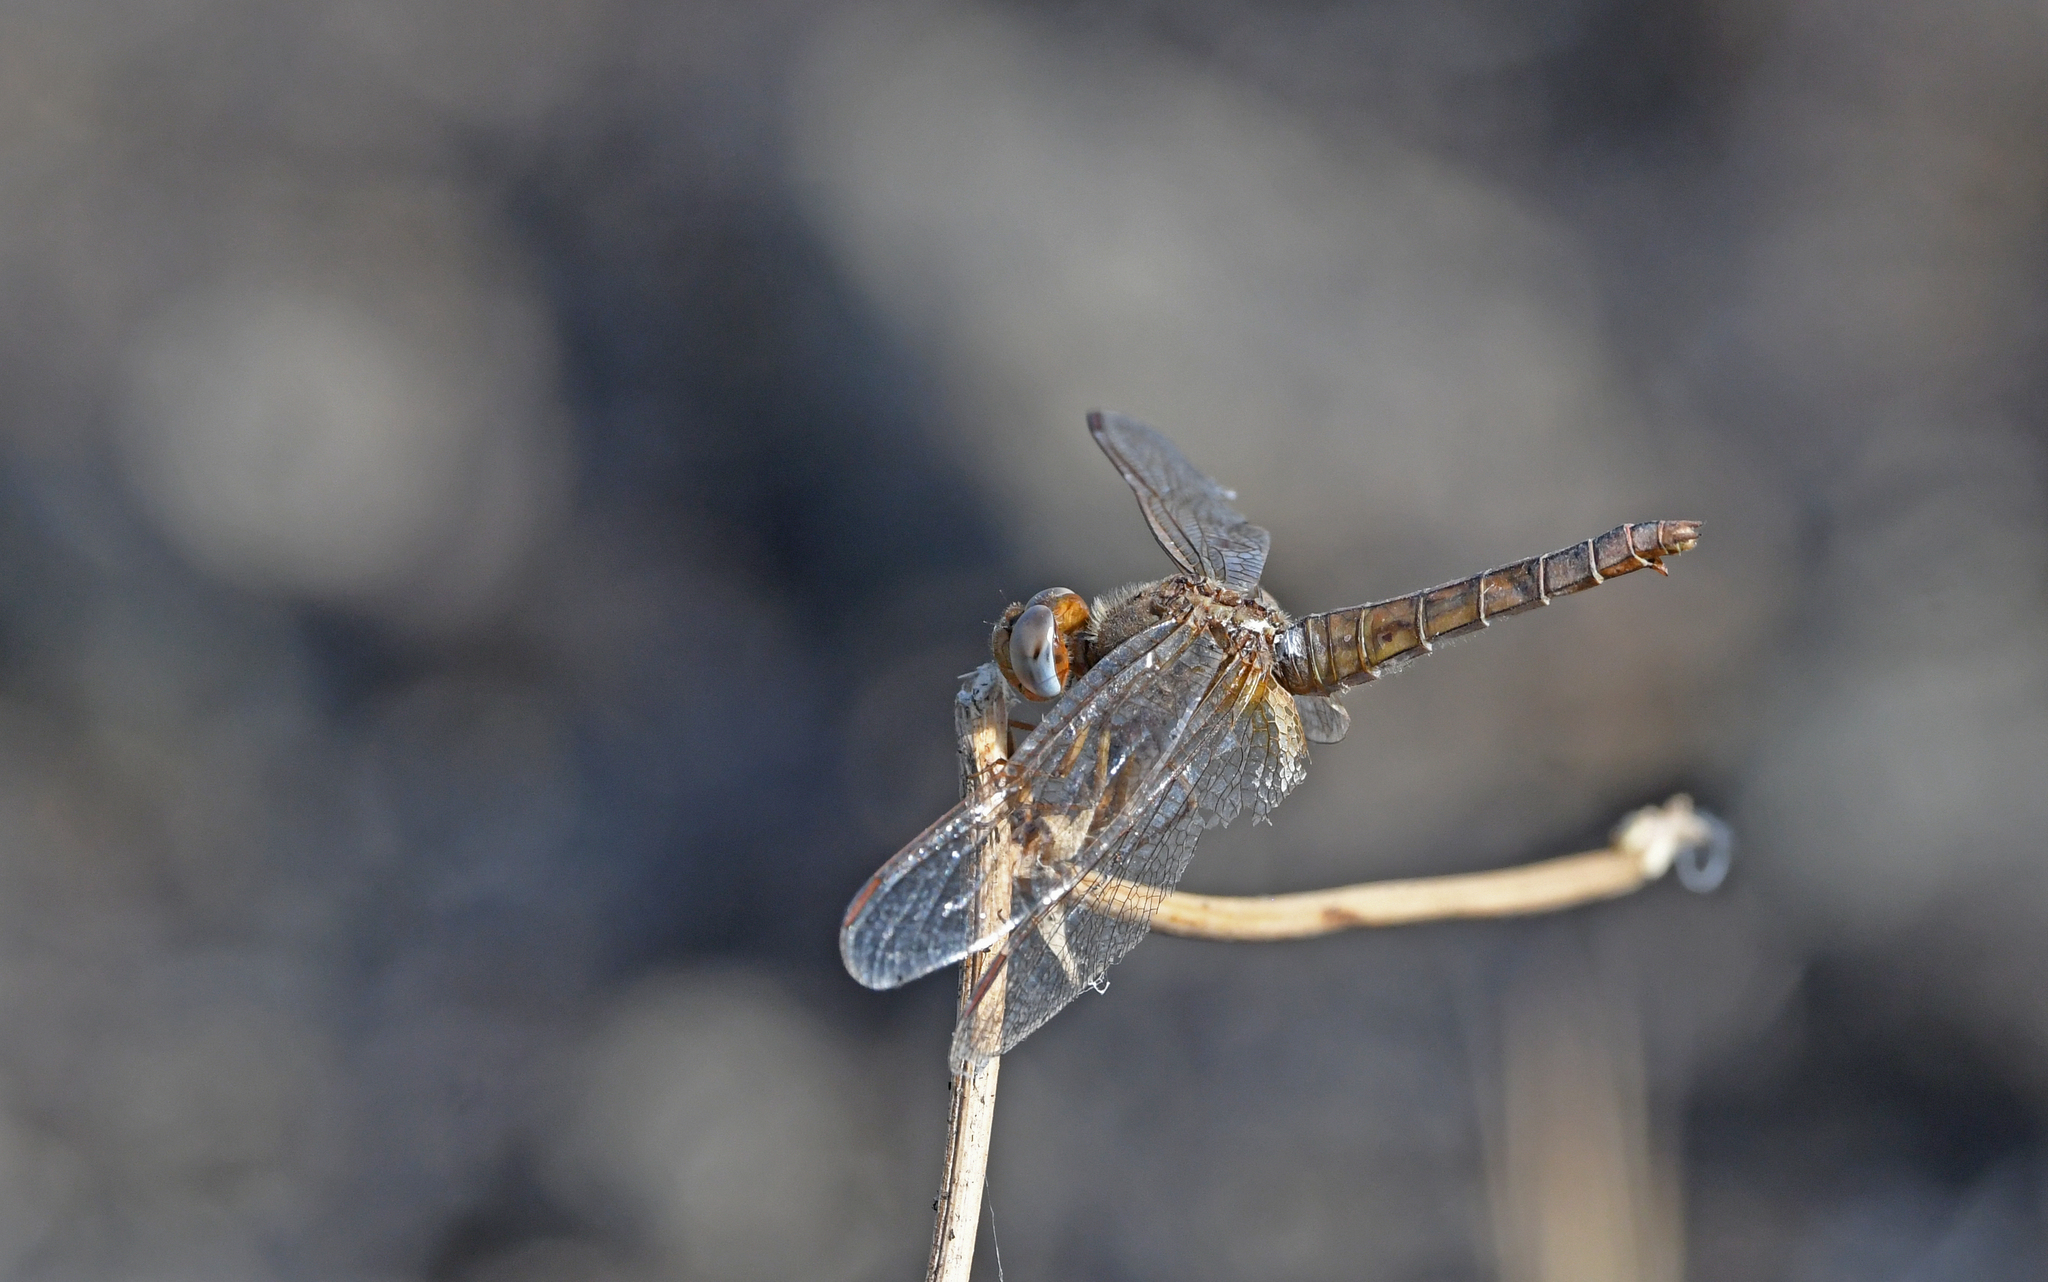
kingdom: Animalia
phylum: Arthropoda
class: Insecta
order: Odonata
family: Libellulidae
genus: Crocothemis
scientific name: Crocothemis erythraea
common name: Scarlet dragonfly
